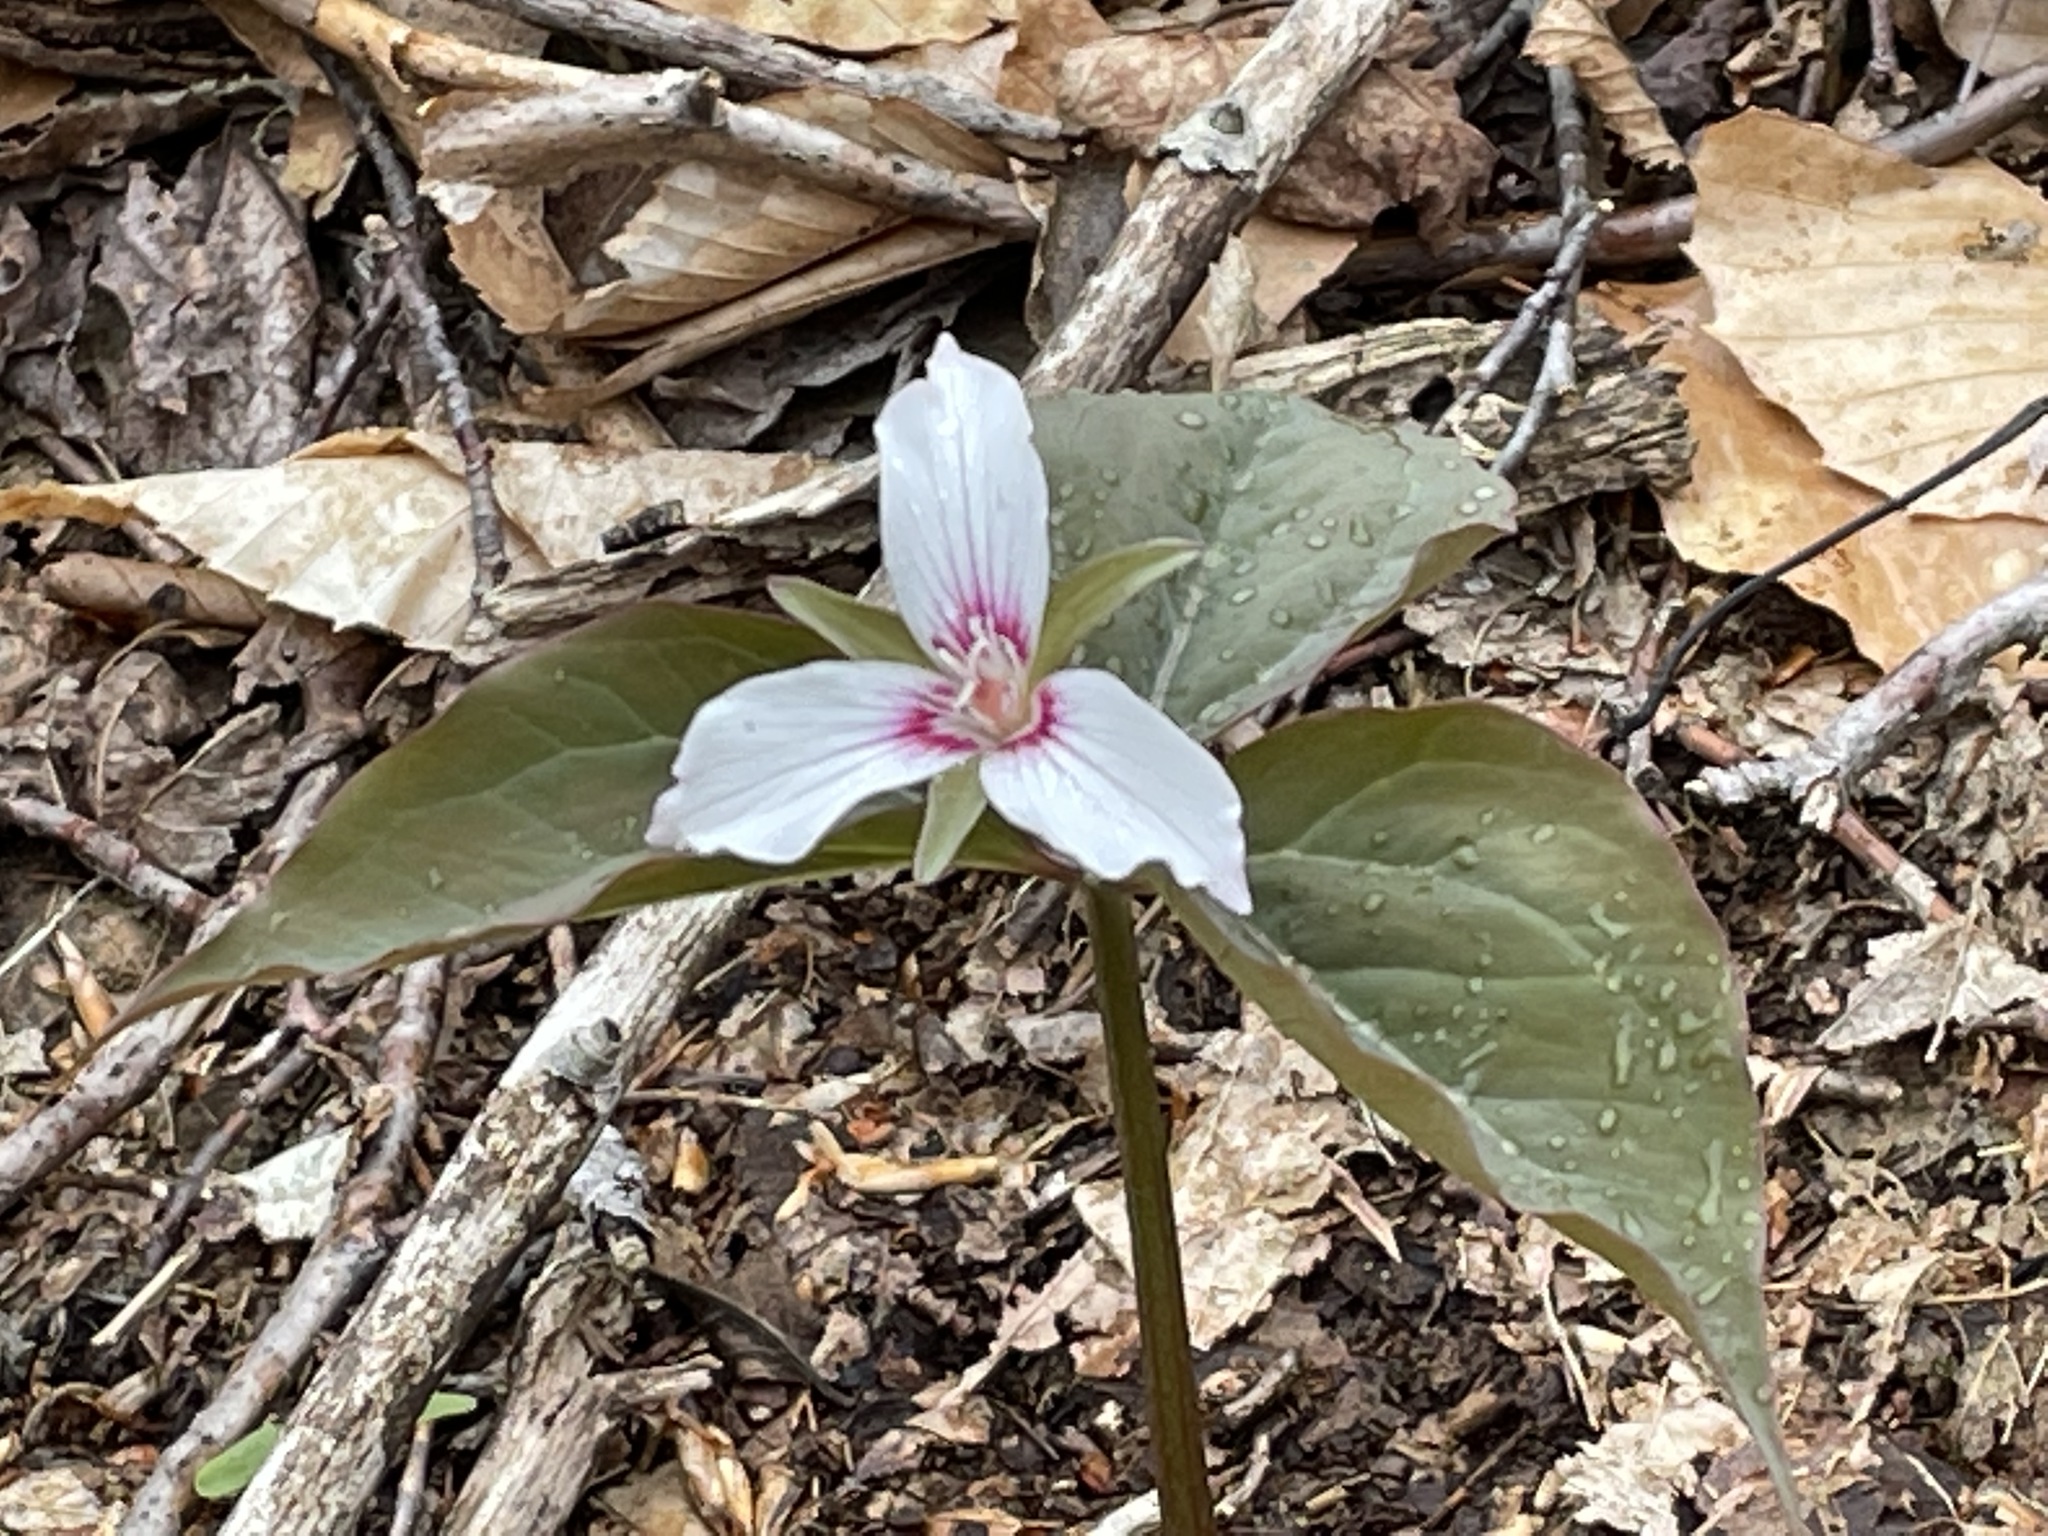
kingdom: Plantae
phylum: Tracheophyta
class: Liliopsida
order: Liliales
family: Melanthiaceae
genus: Trillium
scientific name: Trillium undulatum
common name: Paint trillium
